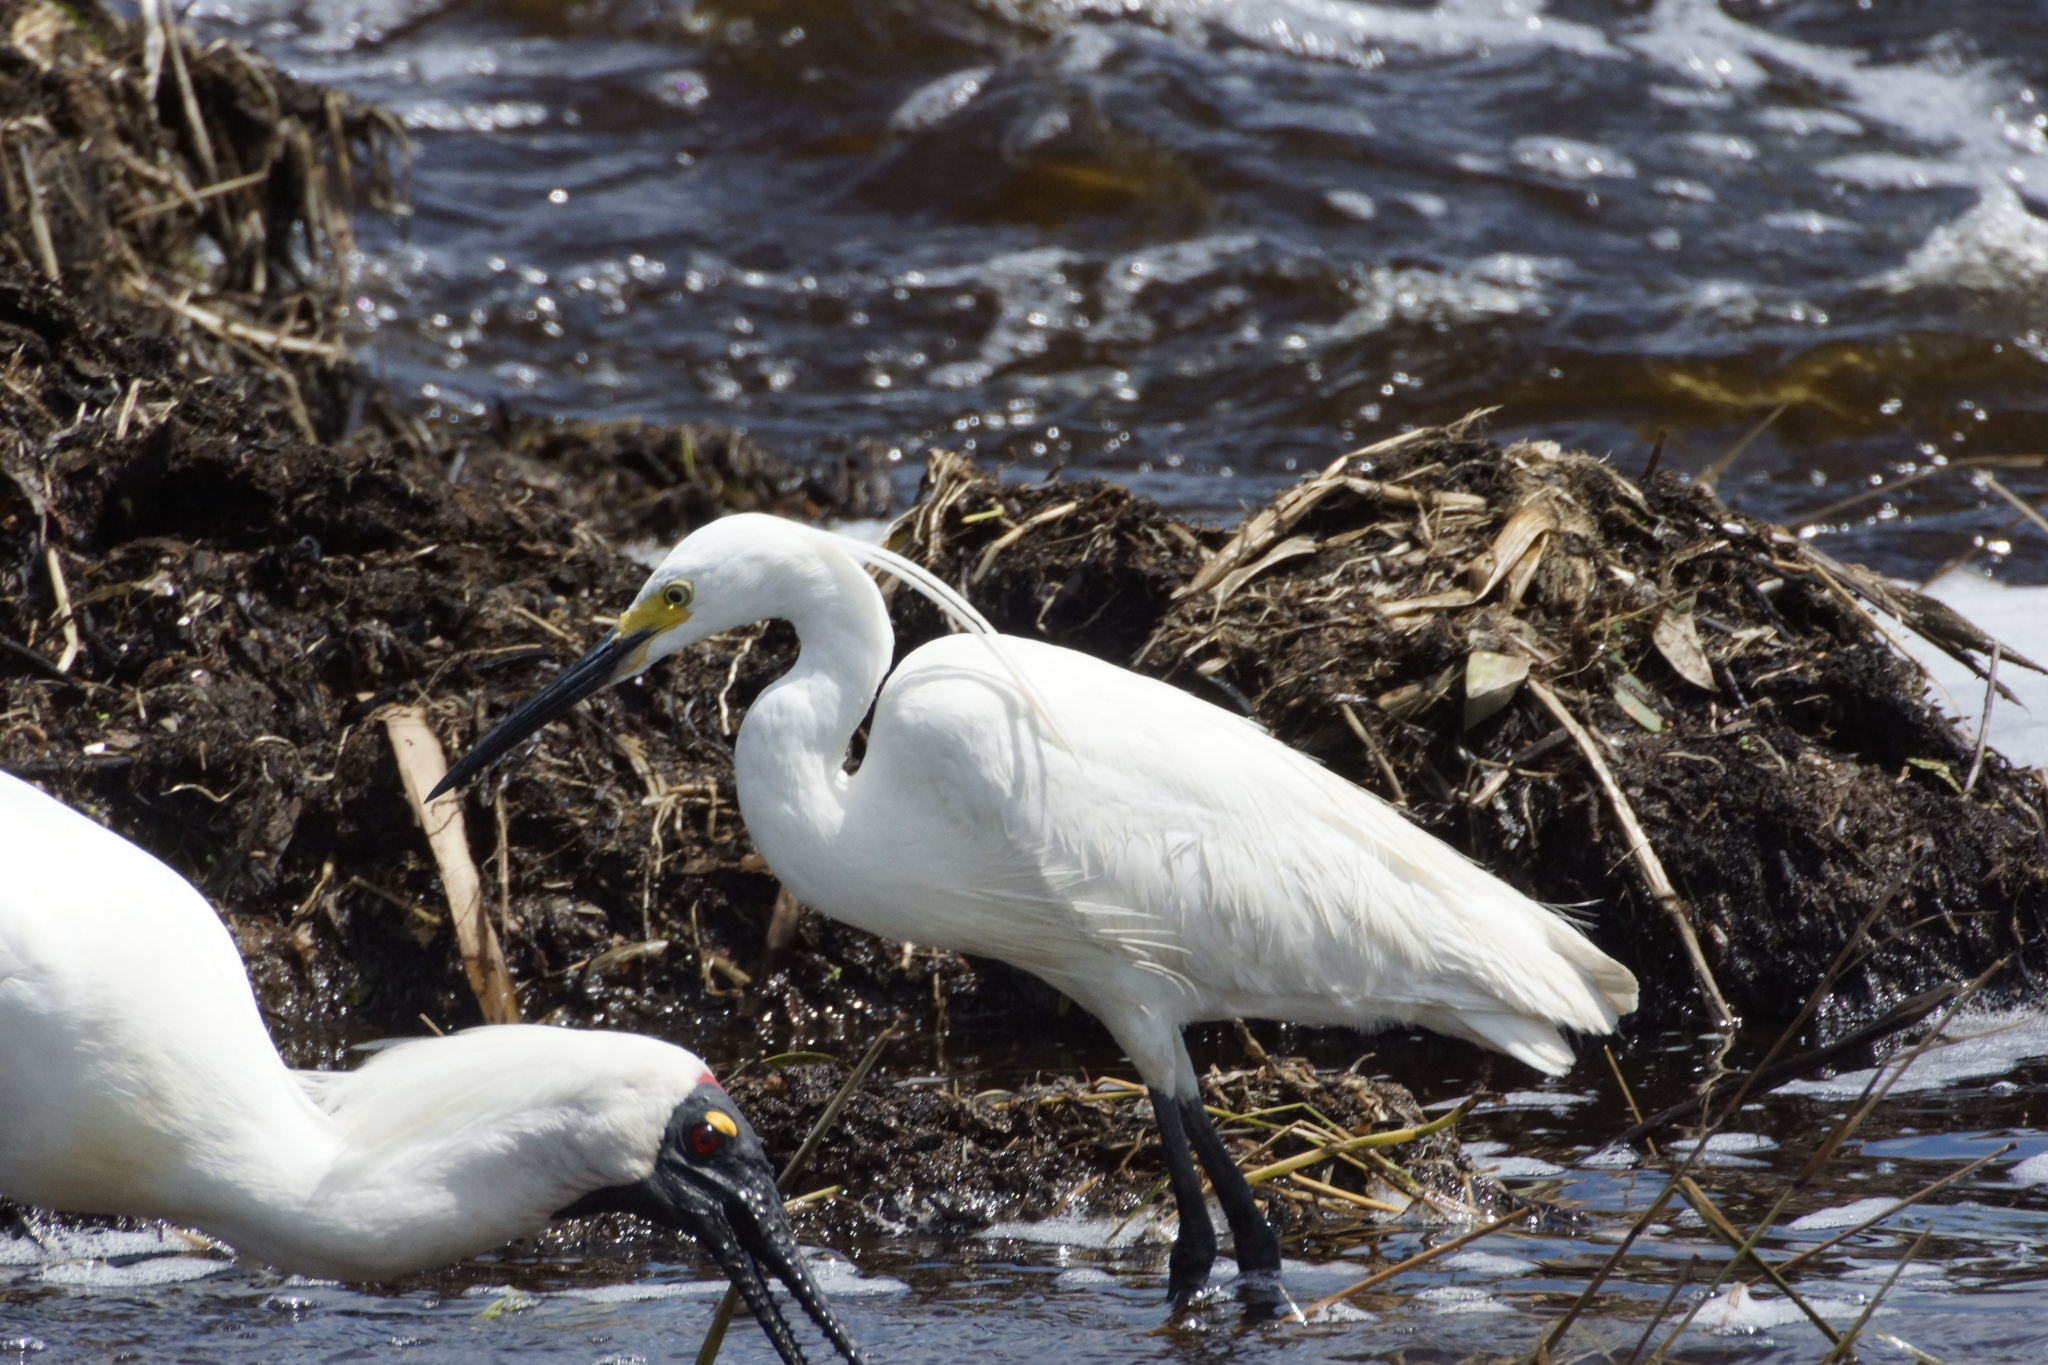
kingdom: Animalia
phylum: Chordata
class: Aves
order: Pelecaniformes
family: Ardeidae
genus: Egretta
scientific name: Egretta garzetta
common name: Little egret
